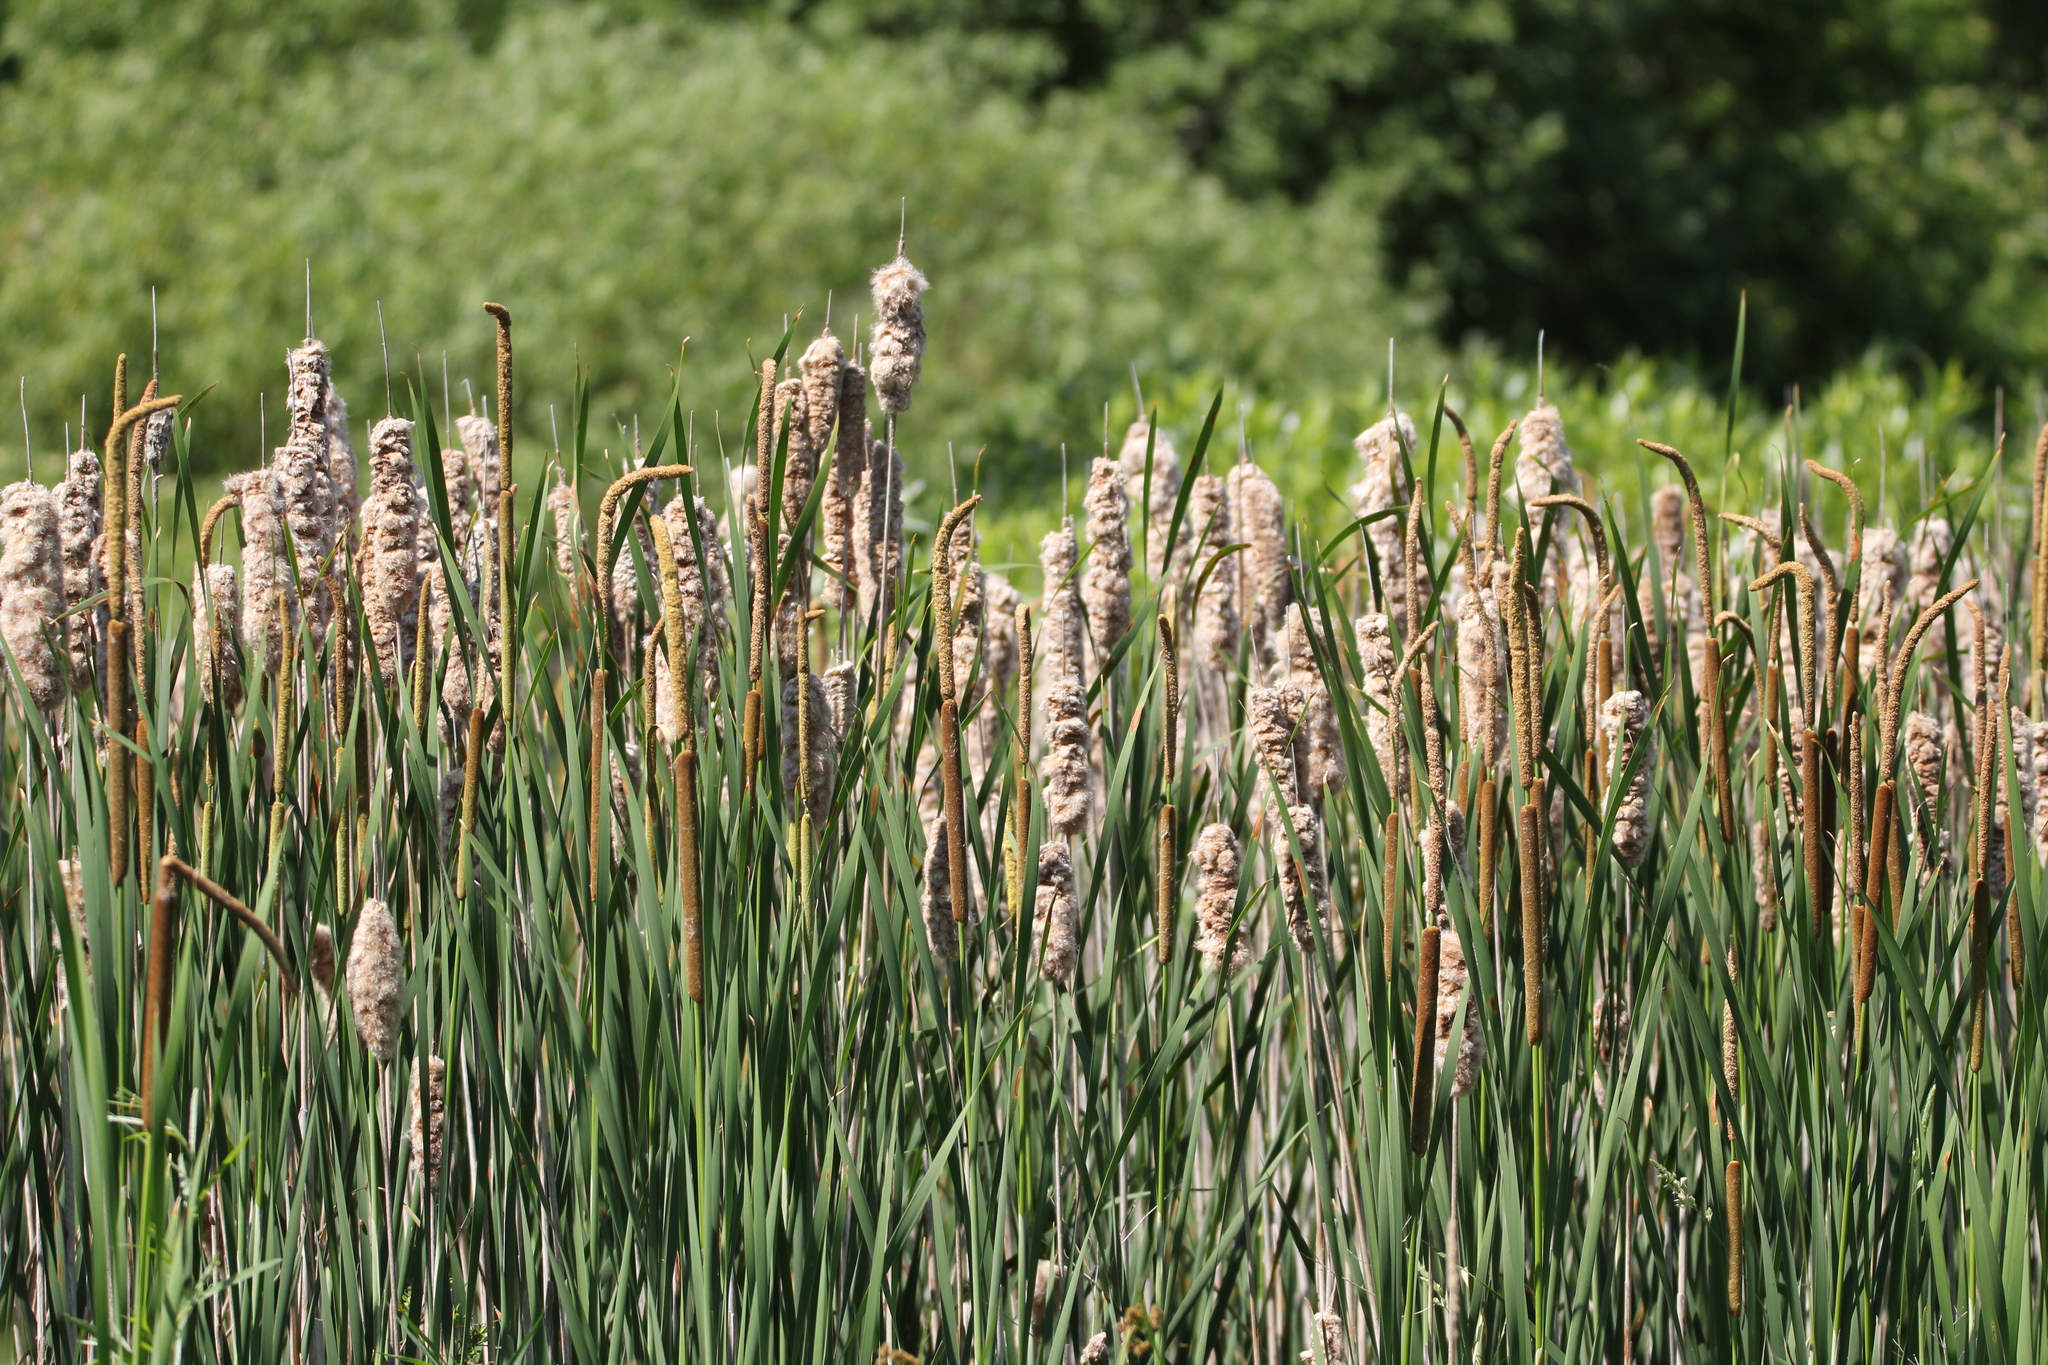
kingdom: Plantae
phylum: Tracheophyta
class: Liliopsida
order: Poales
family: Typhaceae
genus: Typha
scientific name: Typha glauca
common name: Blue cattail
